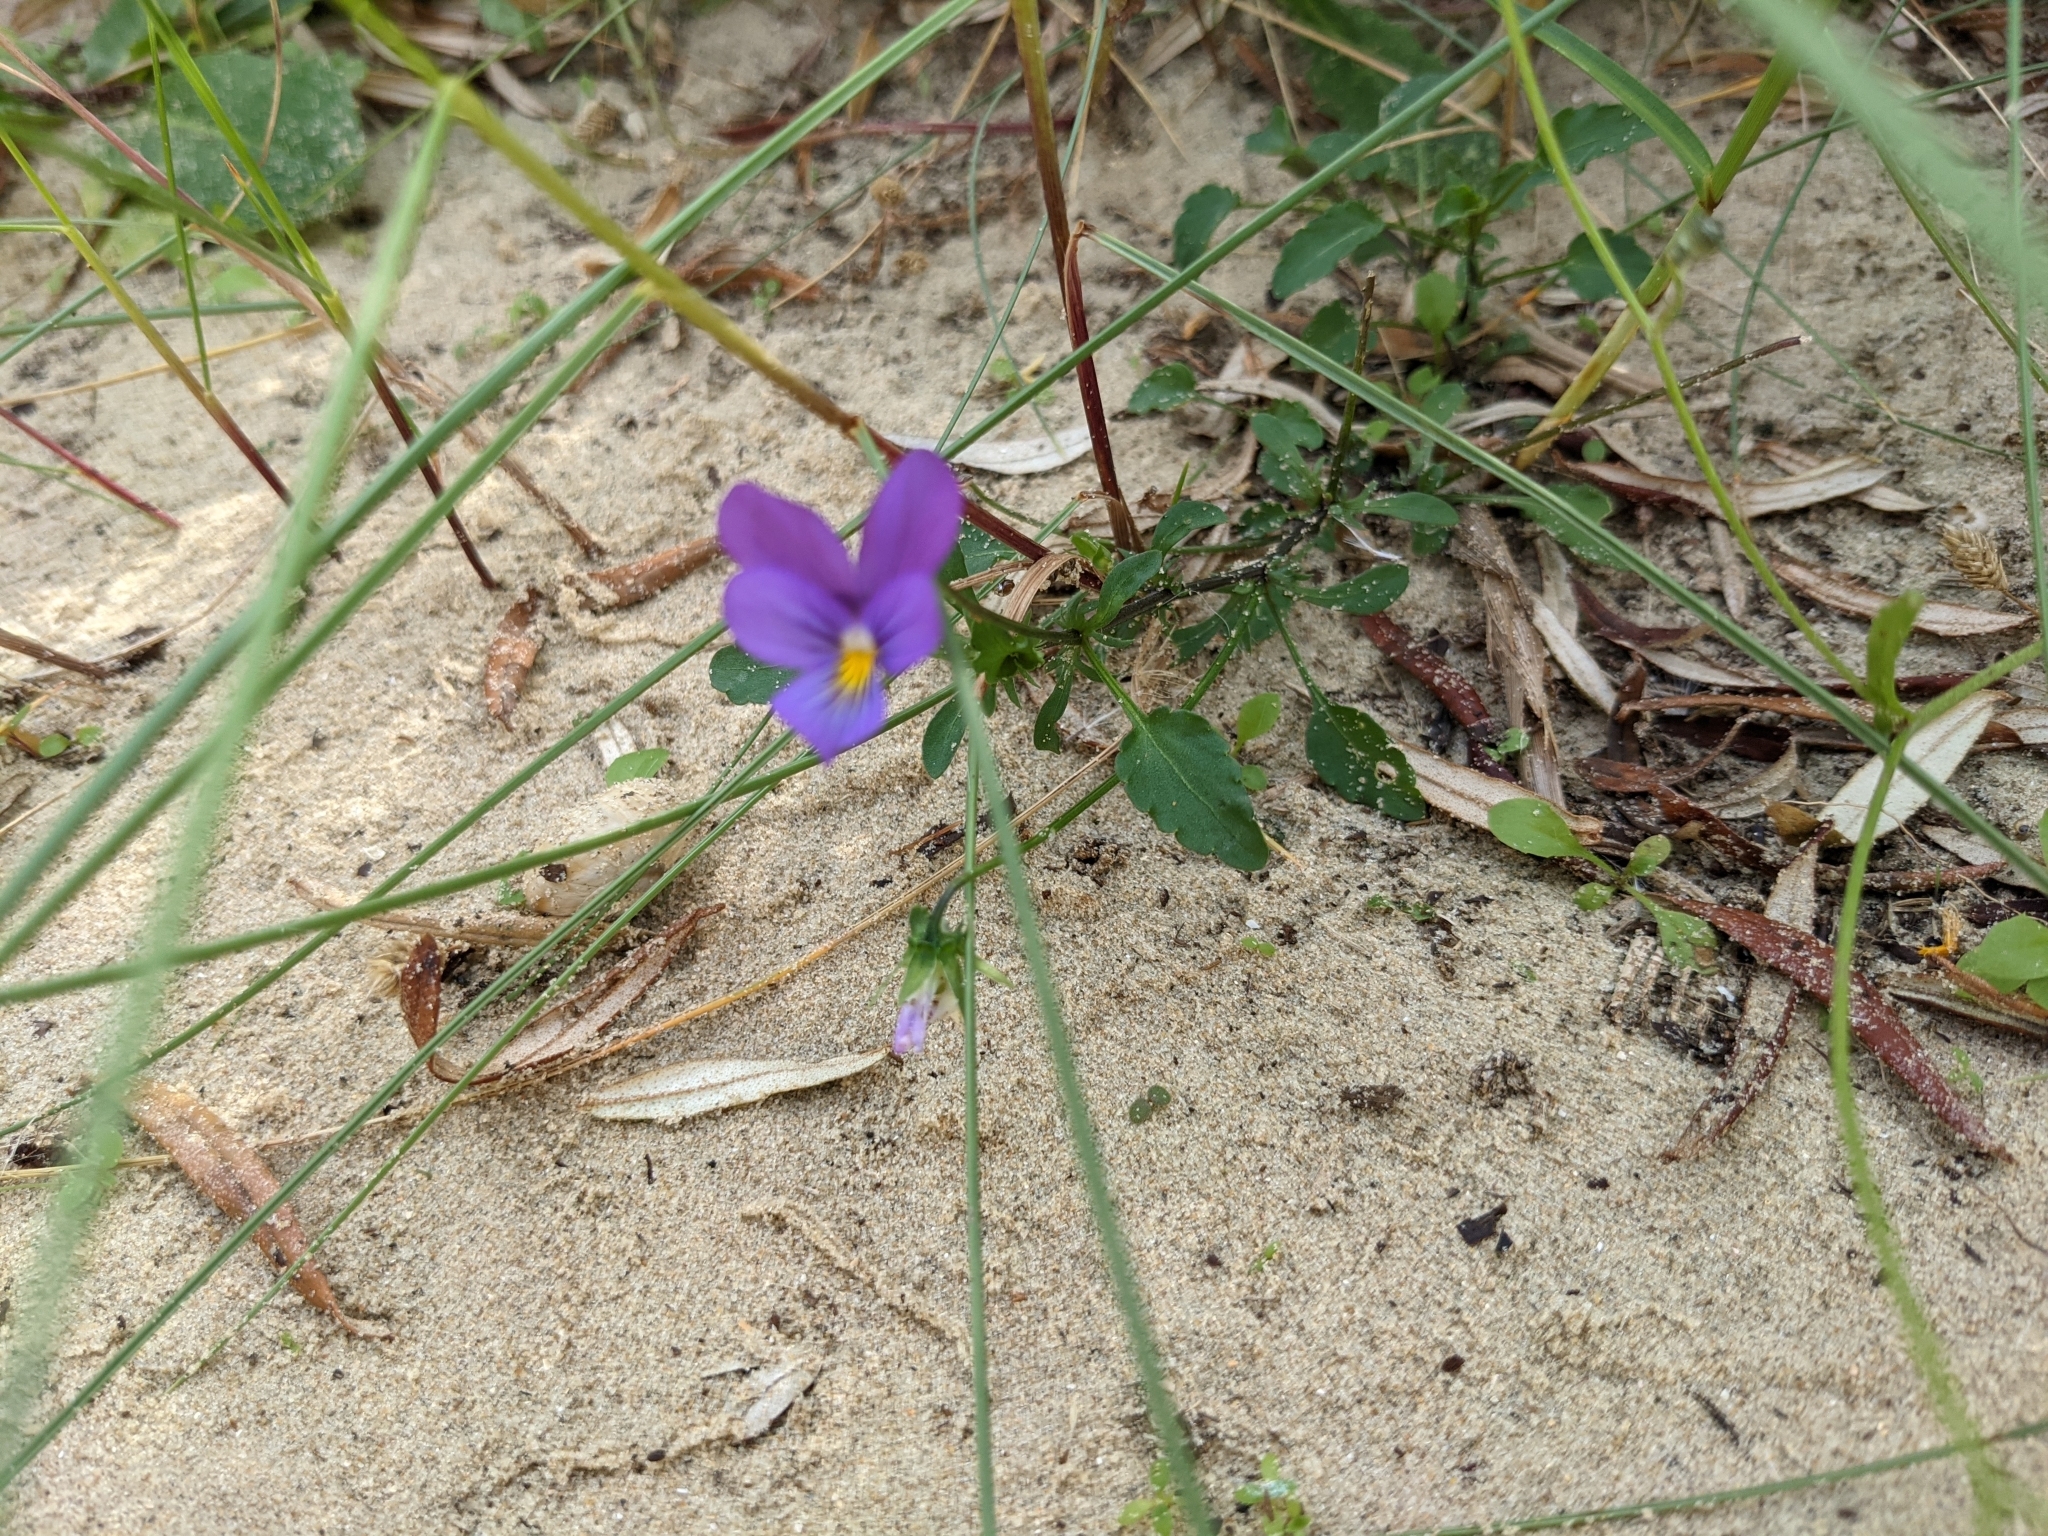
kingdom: Plantae
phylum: Tracheophyta
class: Magnoliopsida
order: Malpighiales
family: Violaceae
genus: Viola
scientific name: Viola tricolor
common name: Pansy
